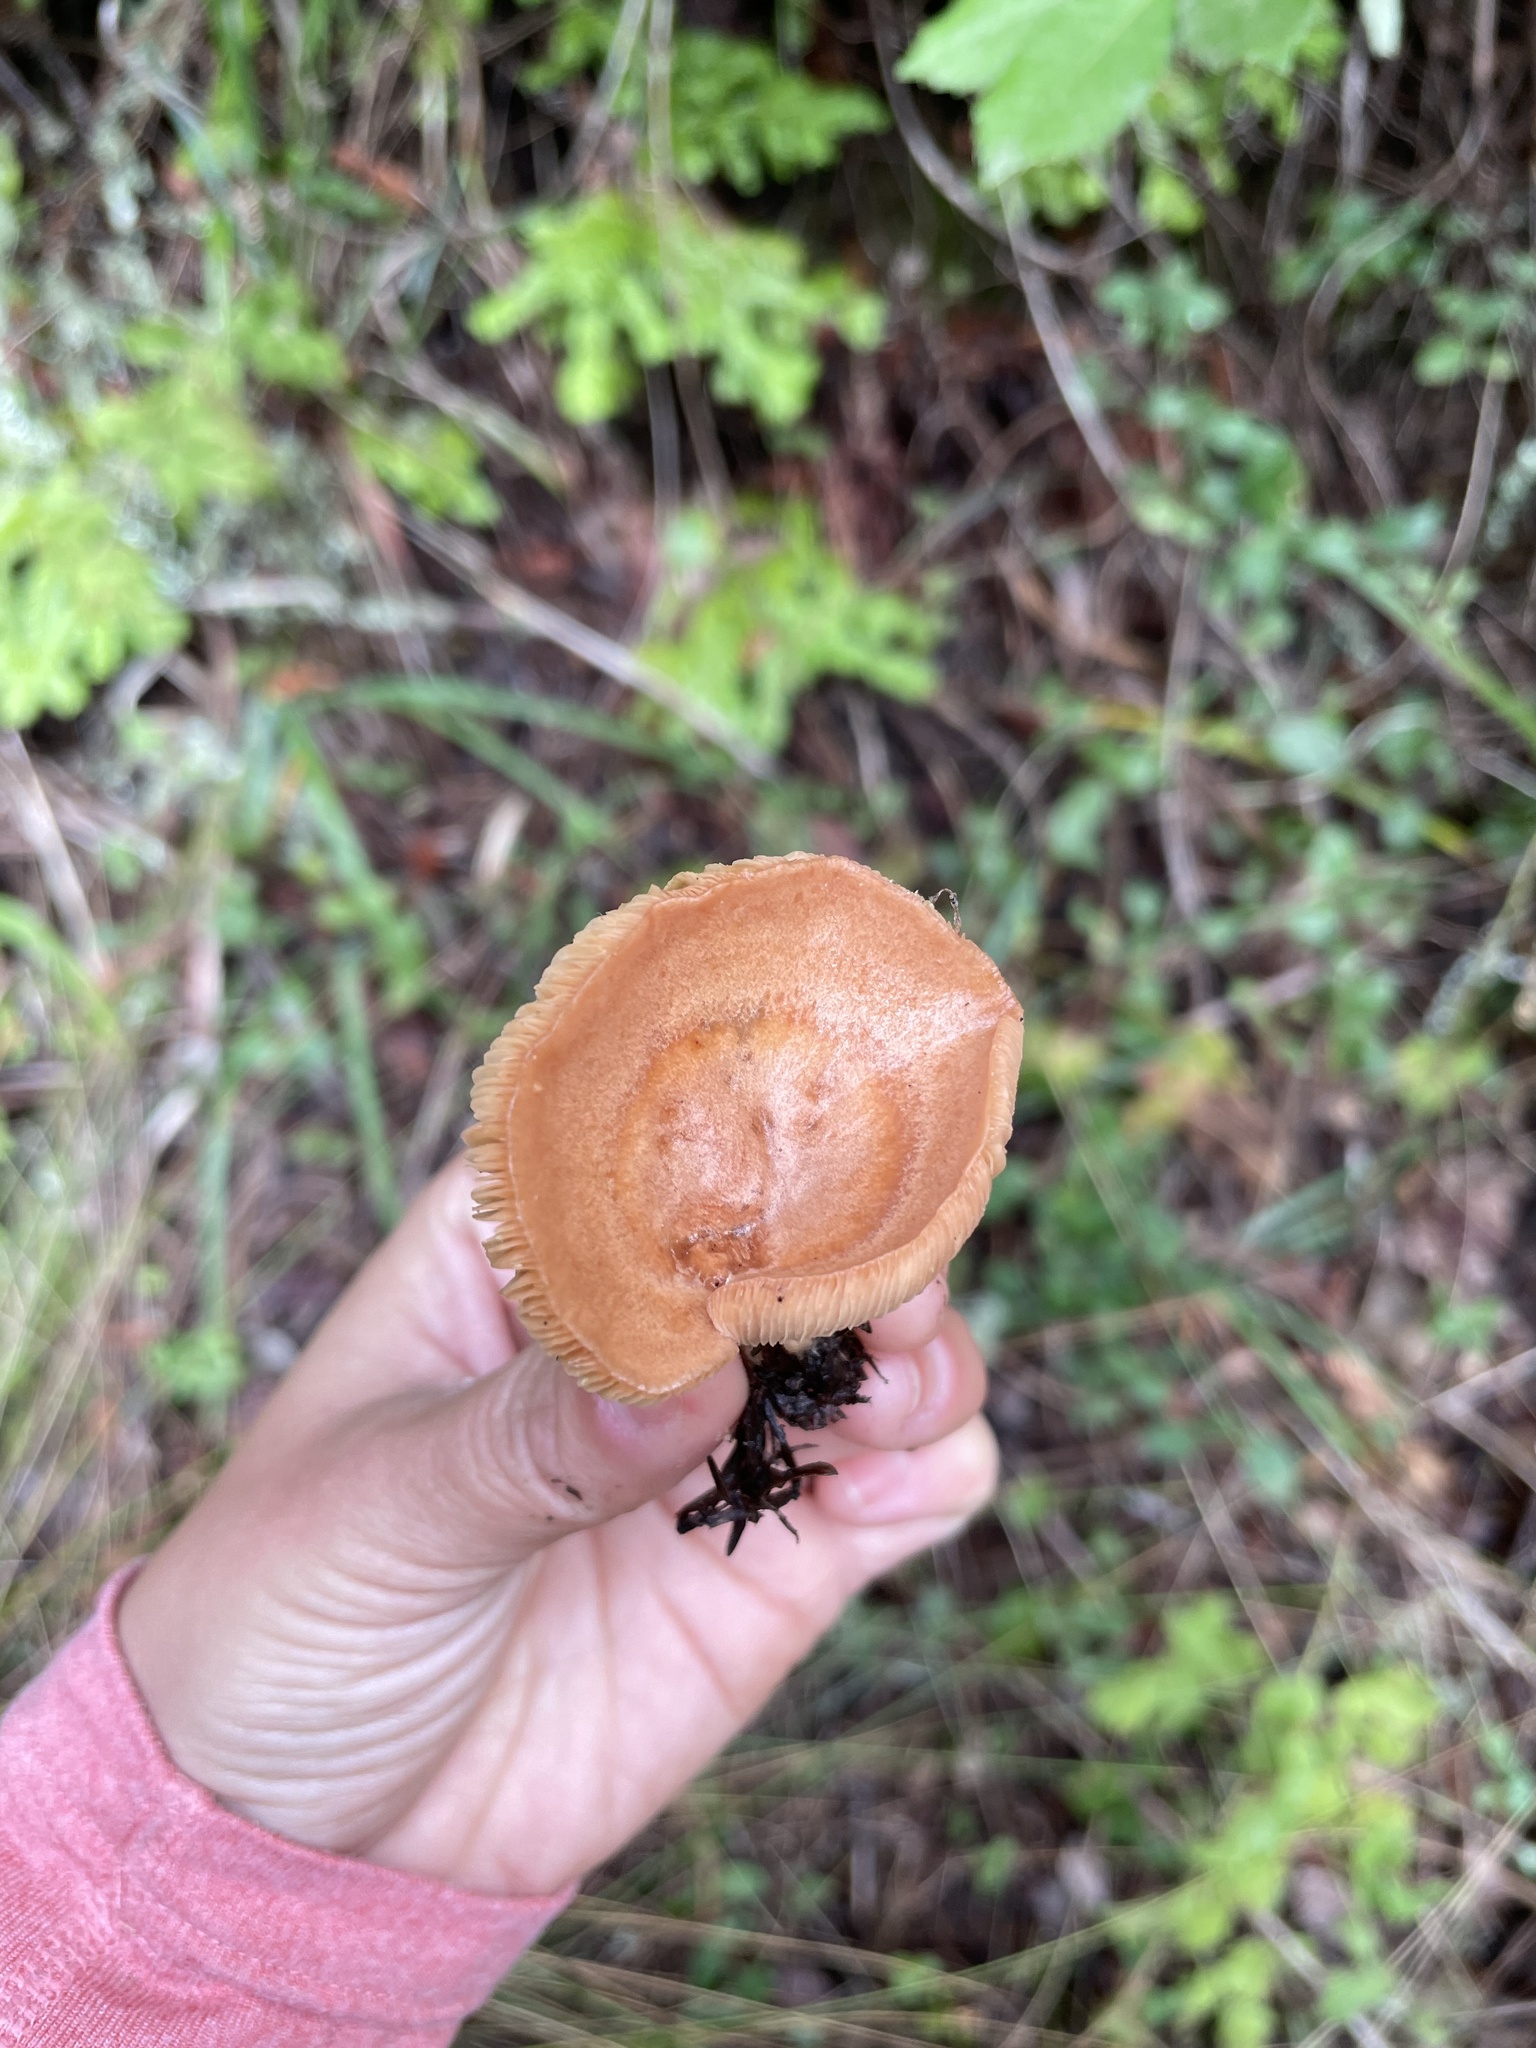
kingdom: Fungi
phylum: Basidiomycota
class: Agaricomycetes
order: Russulales
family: Russulaceae
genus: Lactarius
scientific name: Lactarius xanthogalactus
